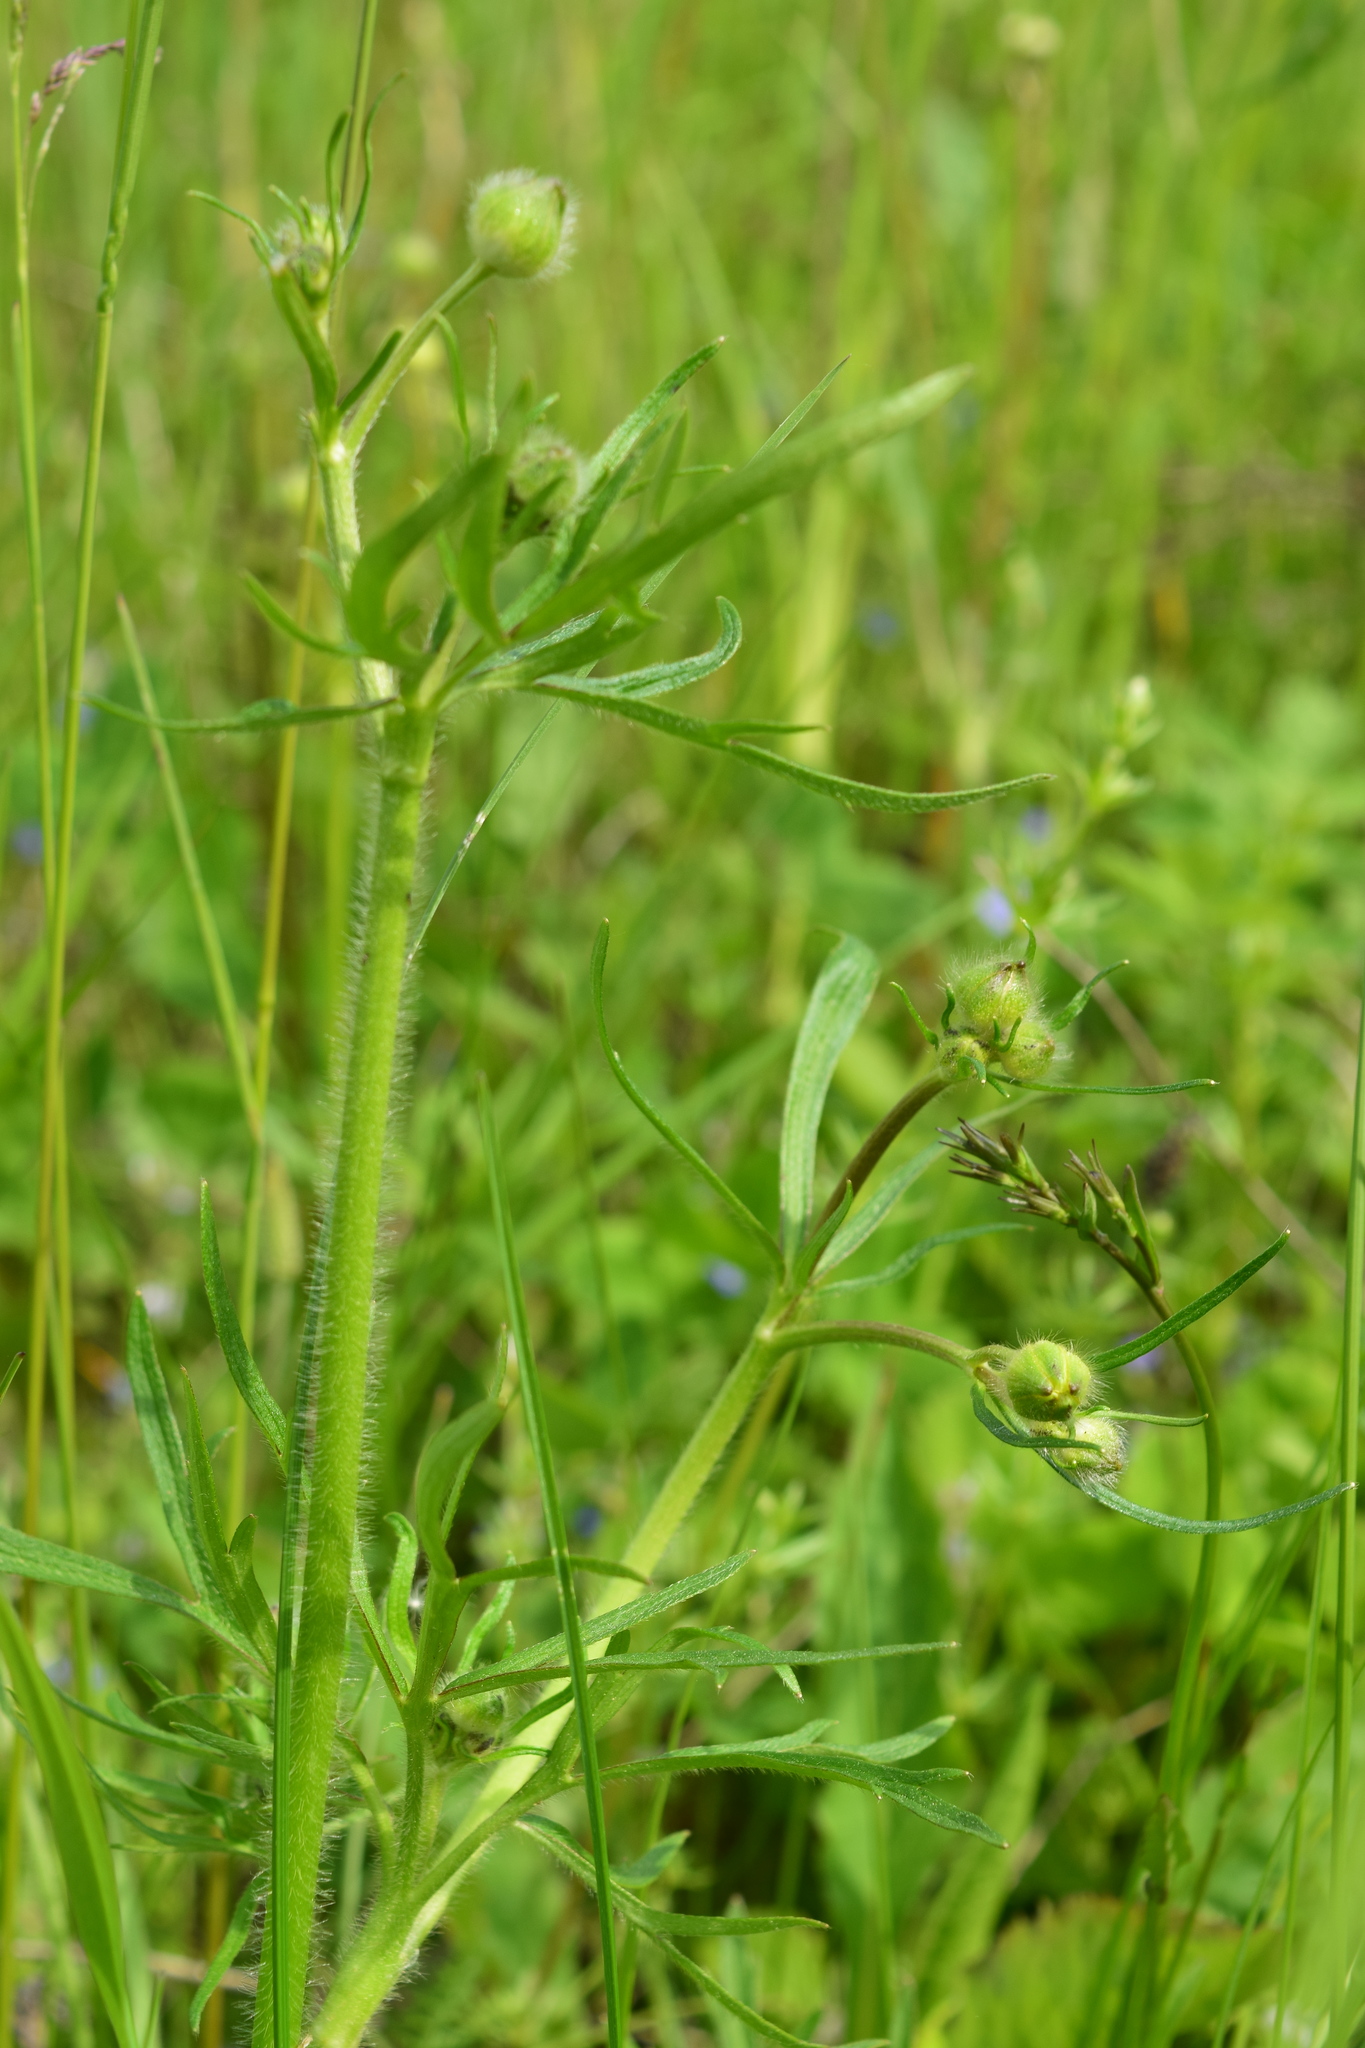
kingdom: Plantae
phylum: Tracheophyta
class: Magnoliopsida
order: Ranunculales
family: Ranunculaceae
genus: Ranunculus
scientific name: Ranunculus polyanthemos
